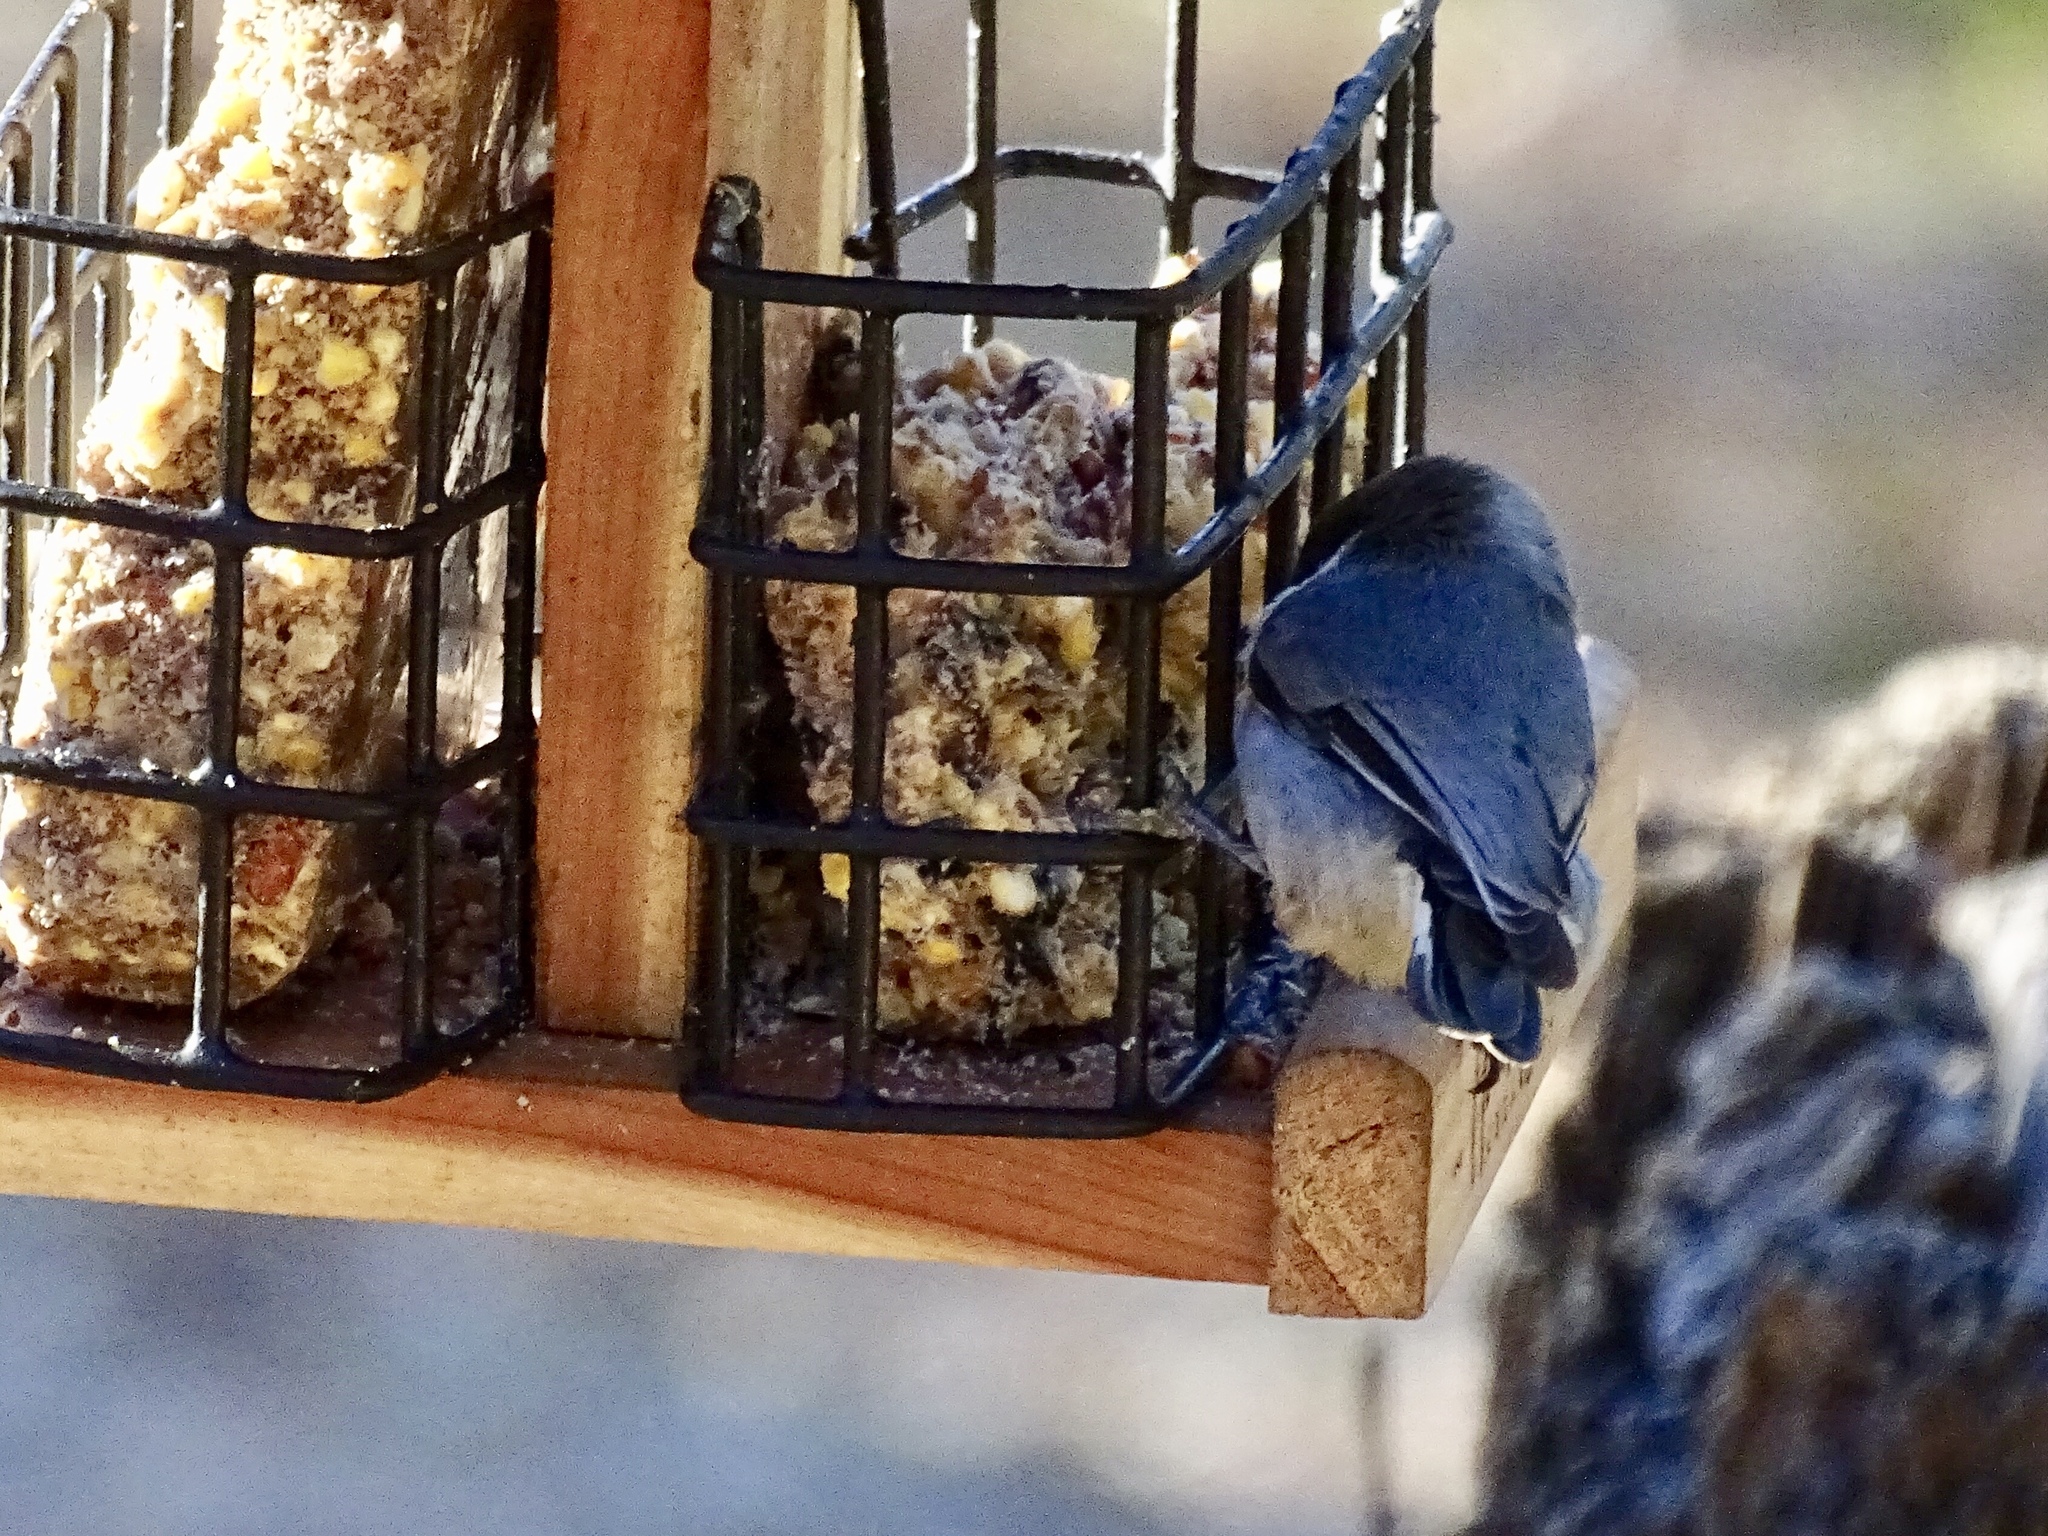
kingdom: Animalia
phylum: Chordata
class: Aves
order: Passeriformes
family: Sittidae
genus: Sitta
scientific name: Sitta pygmaea
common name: Pygmy nuthatch
